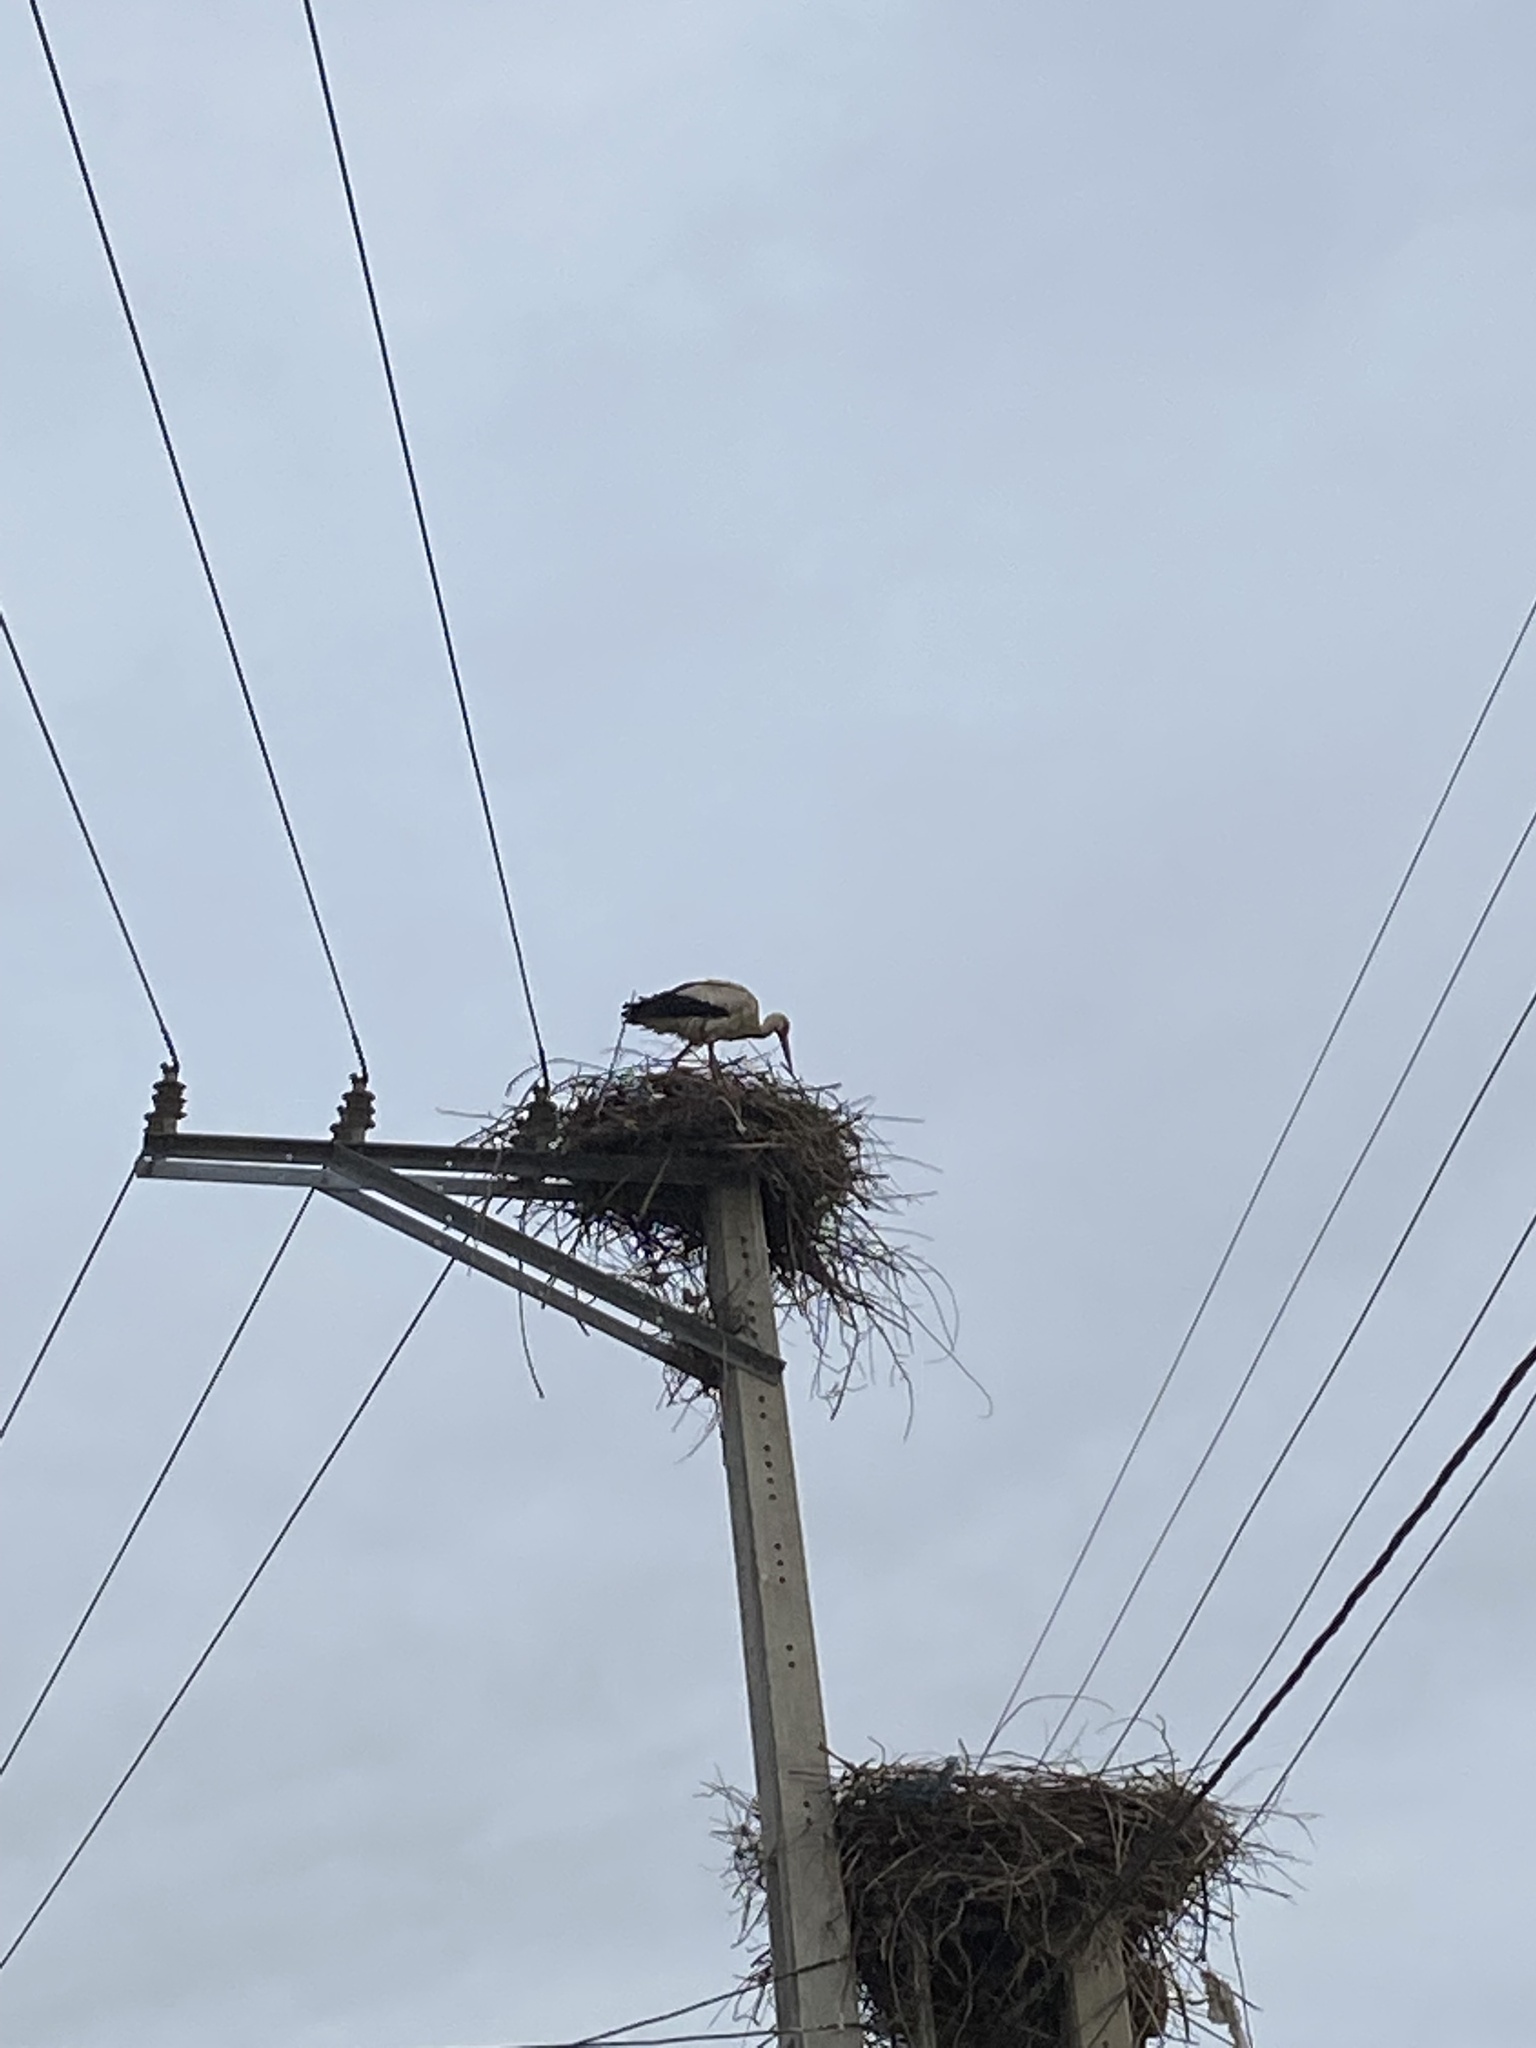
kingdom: Animalia
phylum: Chordata
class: Aves
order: Ciconiiformes
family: Ciconiidae
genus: Ciconia
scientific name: Ciconia ciconia
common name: White stork
